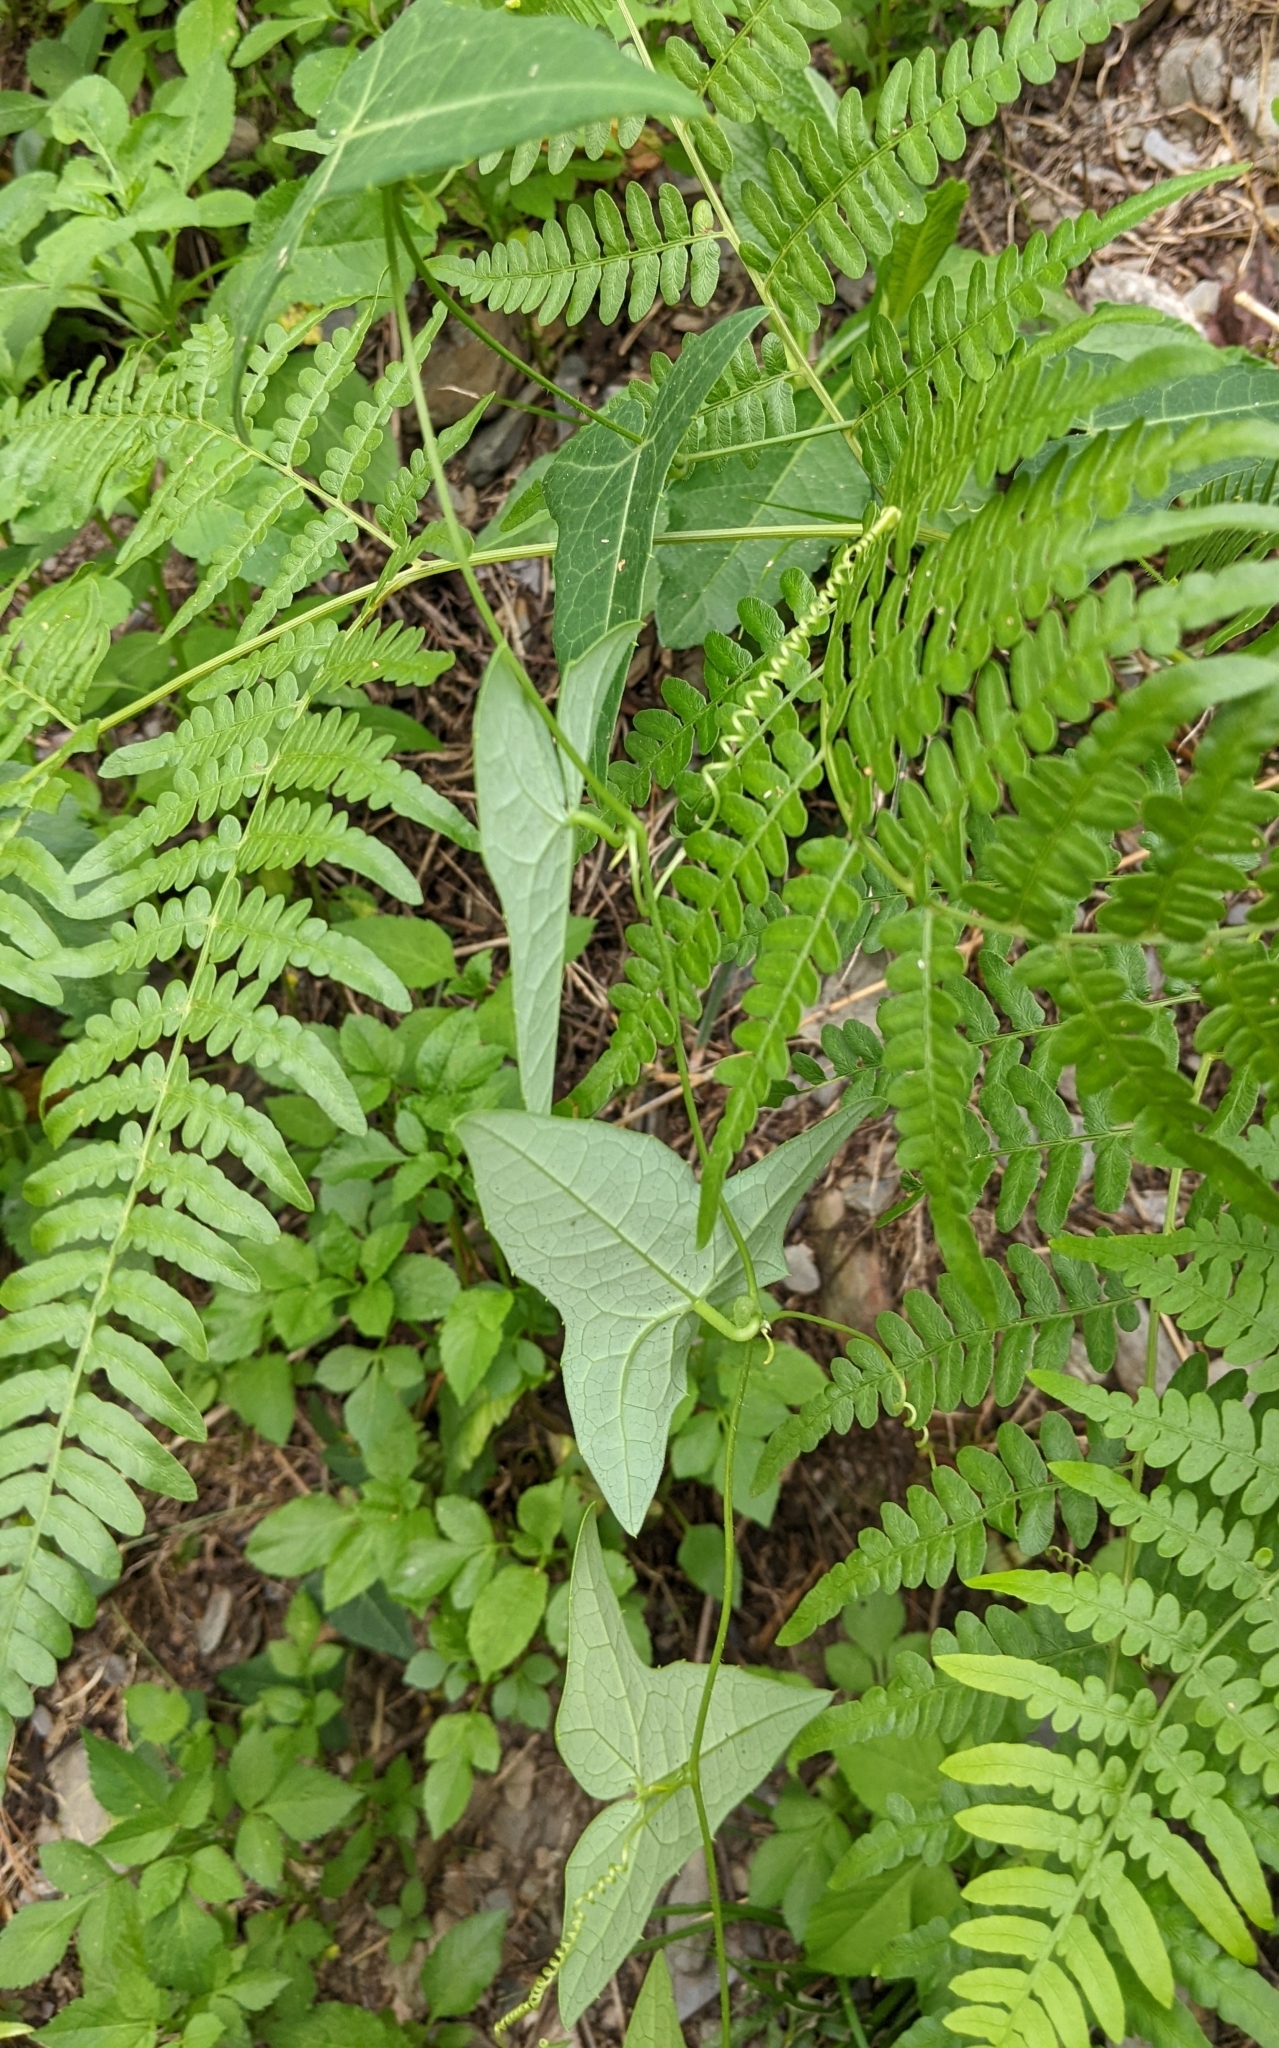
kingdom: Plantae
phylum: Tracheophyta
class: Magnoliopsida
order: Cucurbitales
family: Cucurbitaceae
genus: Solena
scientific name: Solena amplexicaulis
